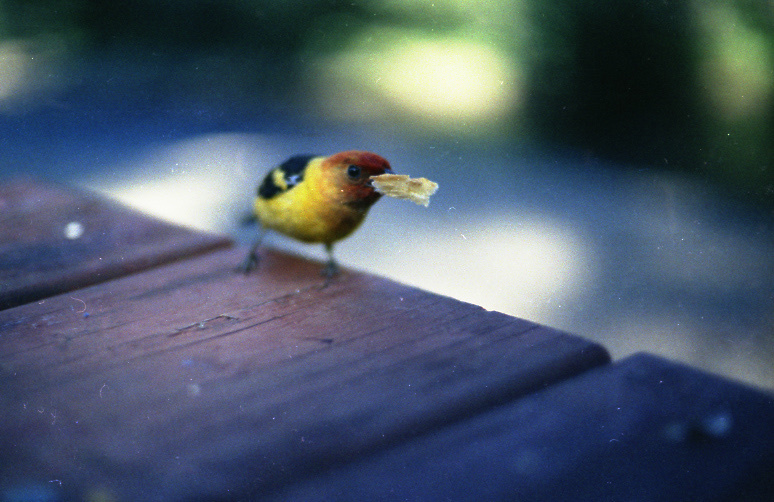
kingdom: Animalia
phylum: Chordata
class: Aves
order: Passeriformes
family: Cardinalidae
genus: Piranga
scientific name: Piranga ludoviciana
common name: Western tanager
